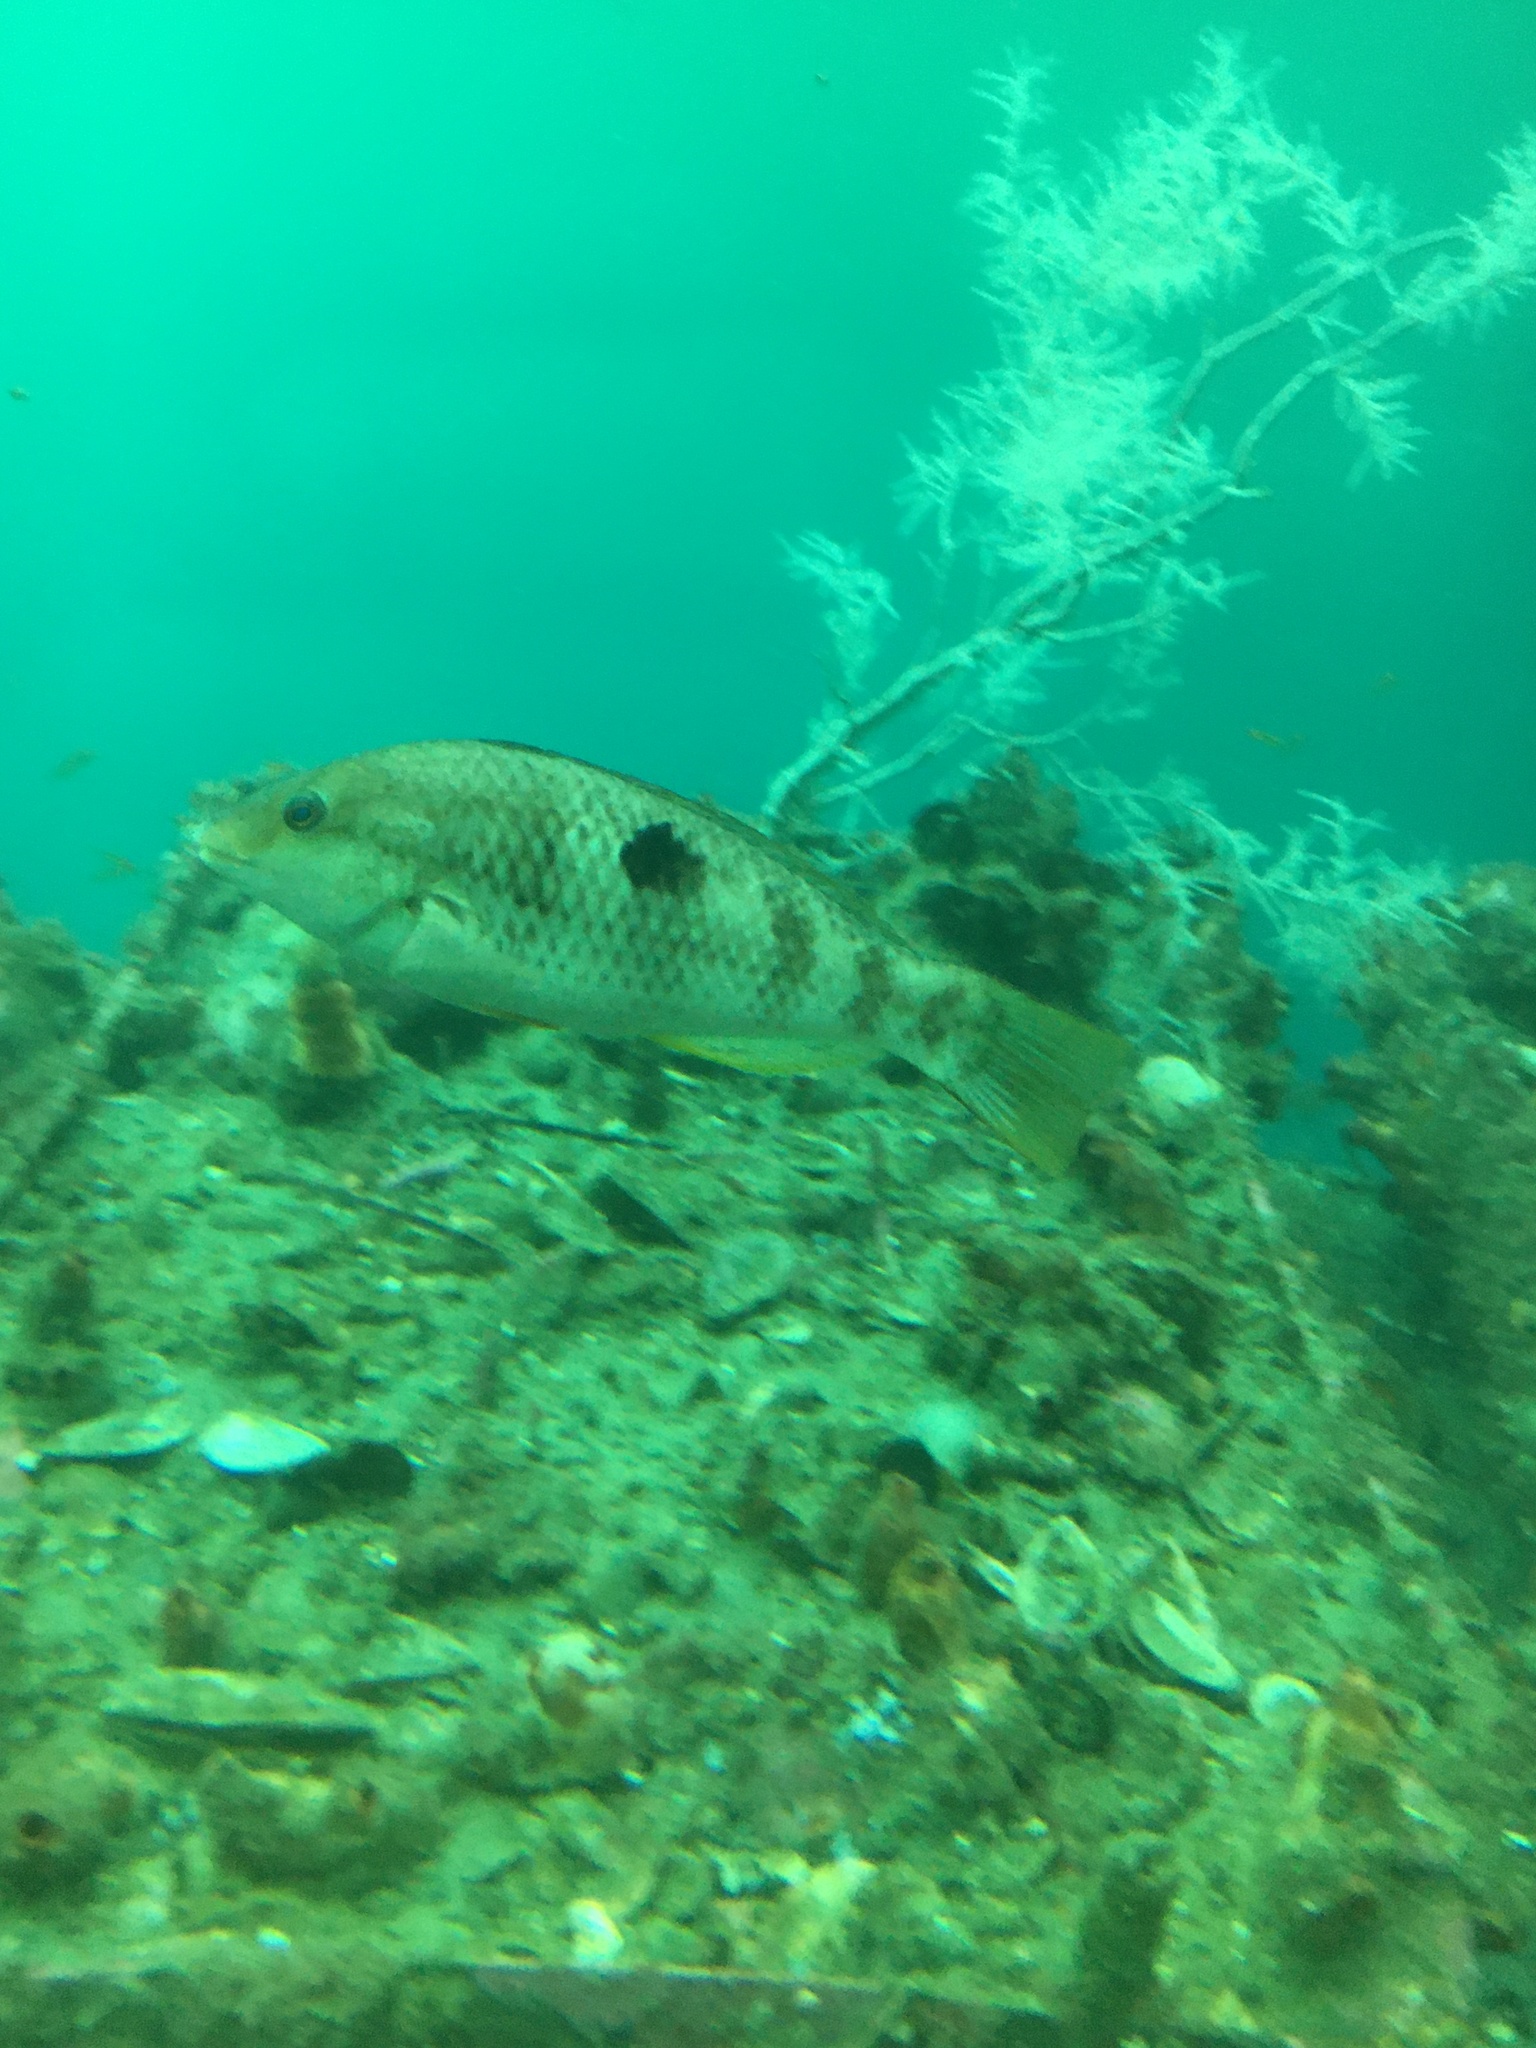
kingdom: Animalia
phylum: Chordata
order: Perciformes
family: Labridae
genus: Notolabrus
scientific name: Notolabrus celidotus
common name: Spotty
